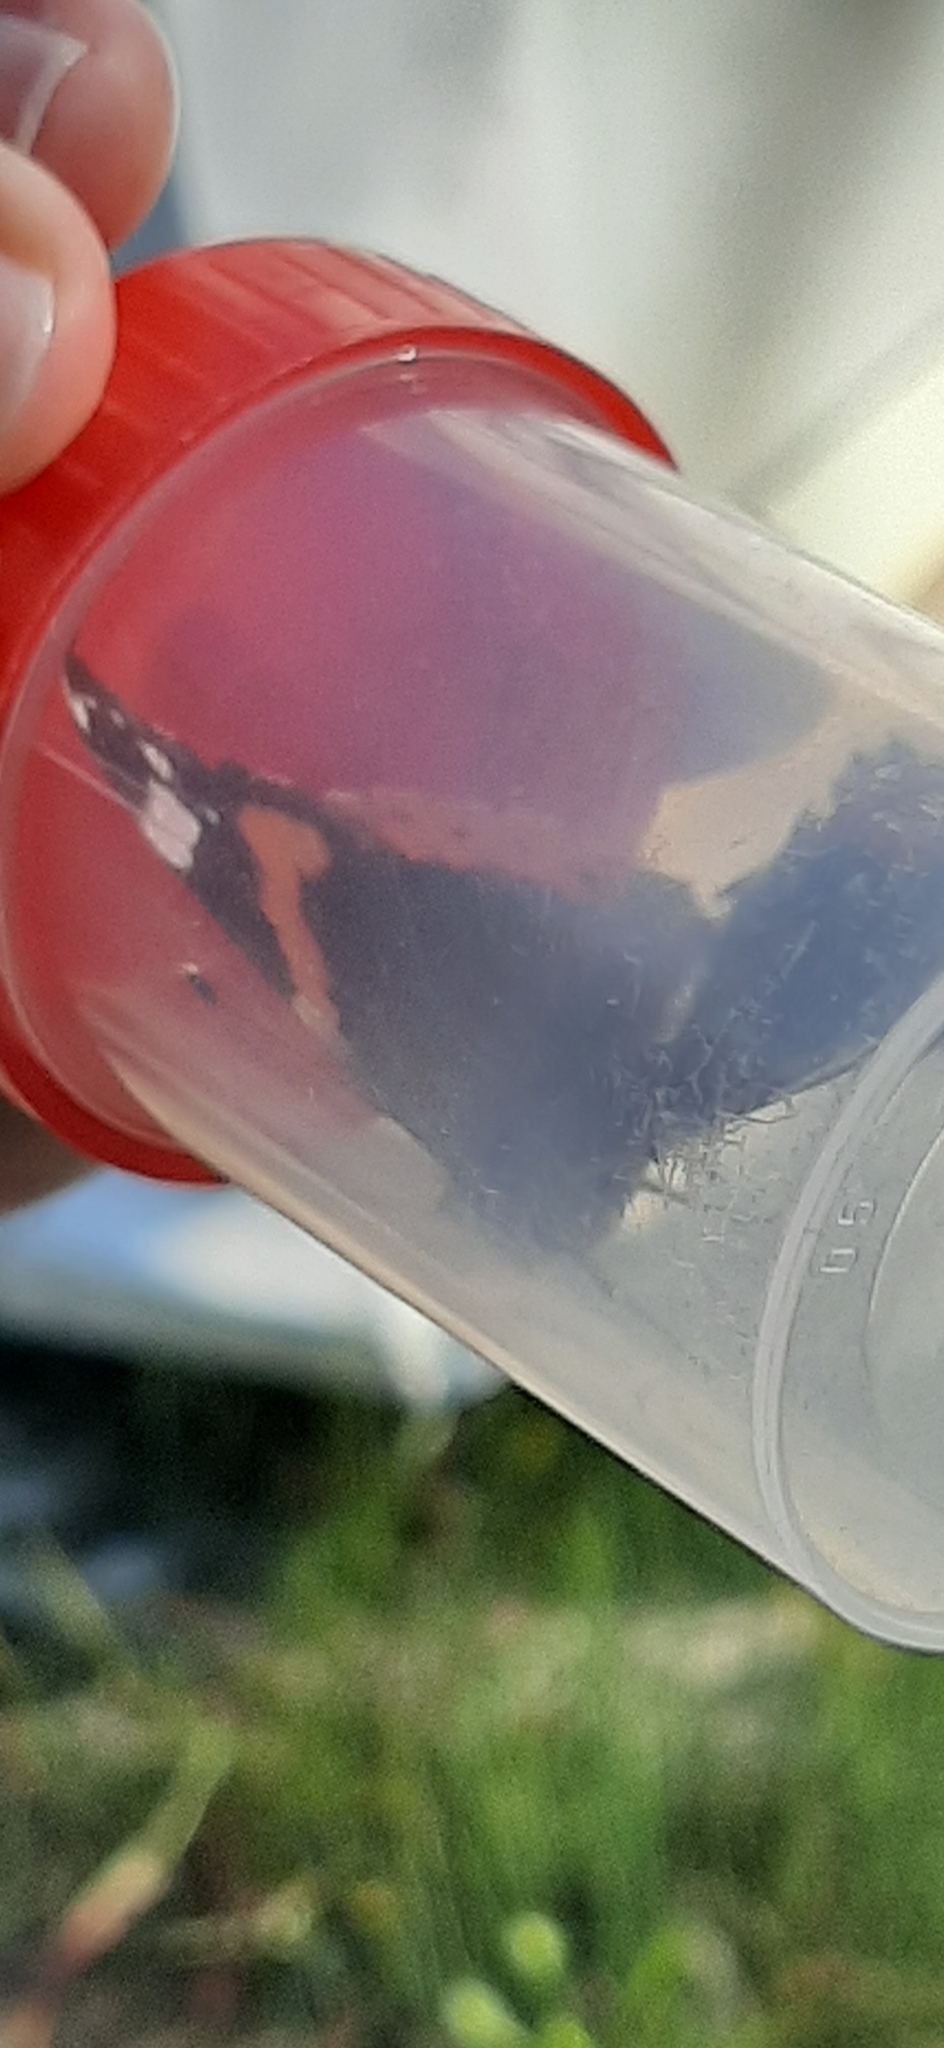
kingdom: Animalia
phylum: Arthropoda
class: Insecta
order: Lepidoptera
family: Nymphalidae
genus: Vanessa
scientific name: Vanessa atalanta
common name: Red admiral
